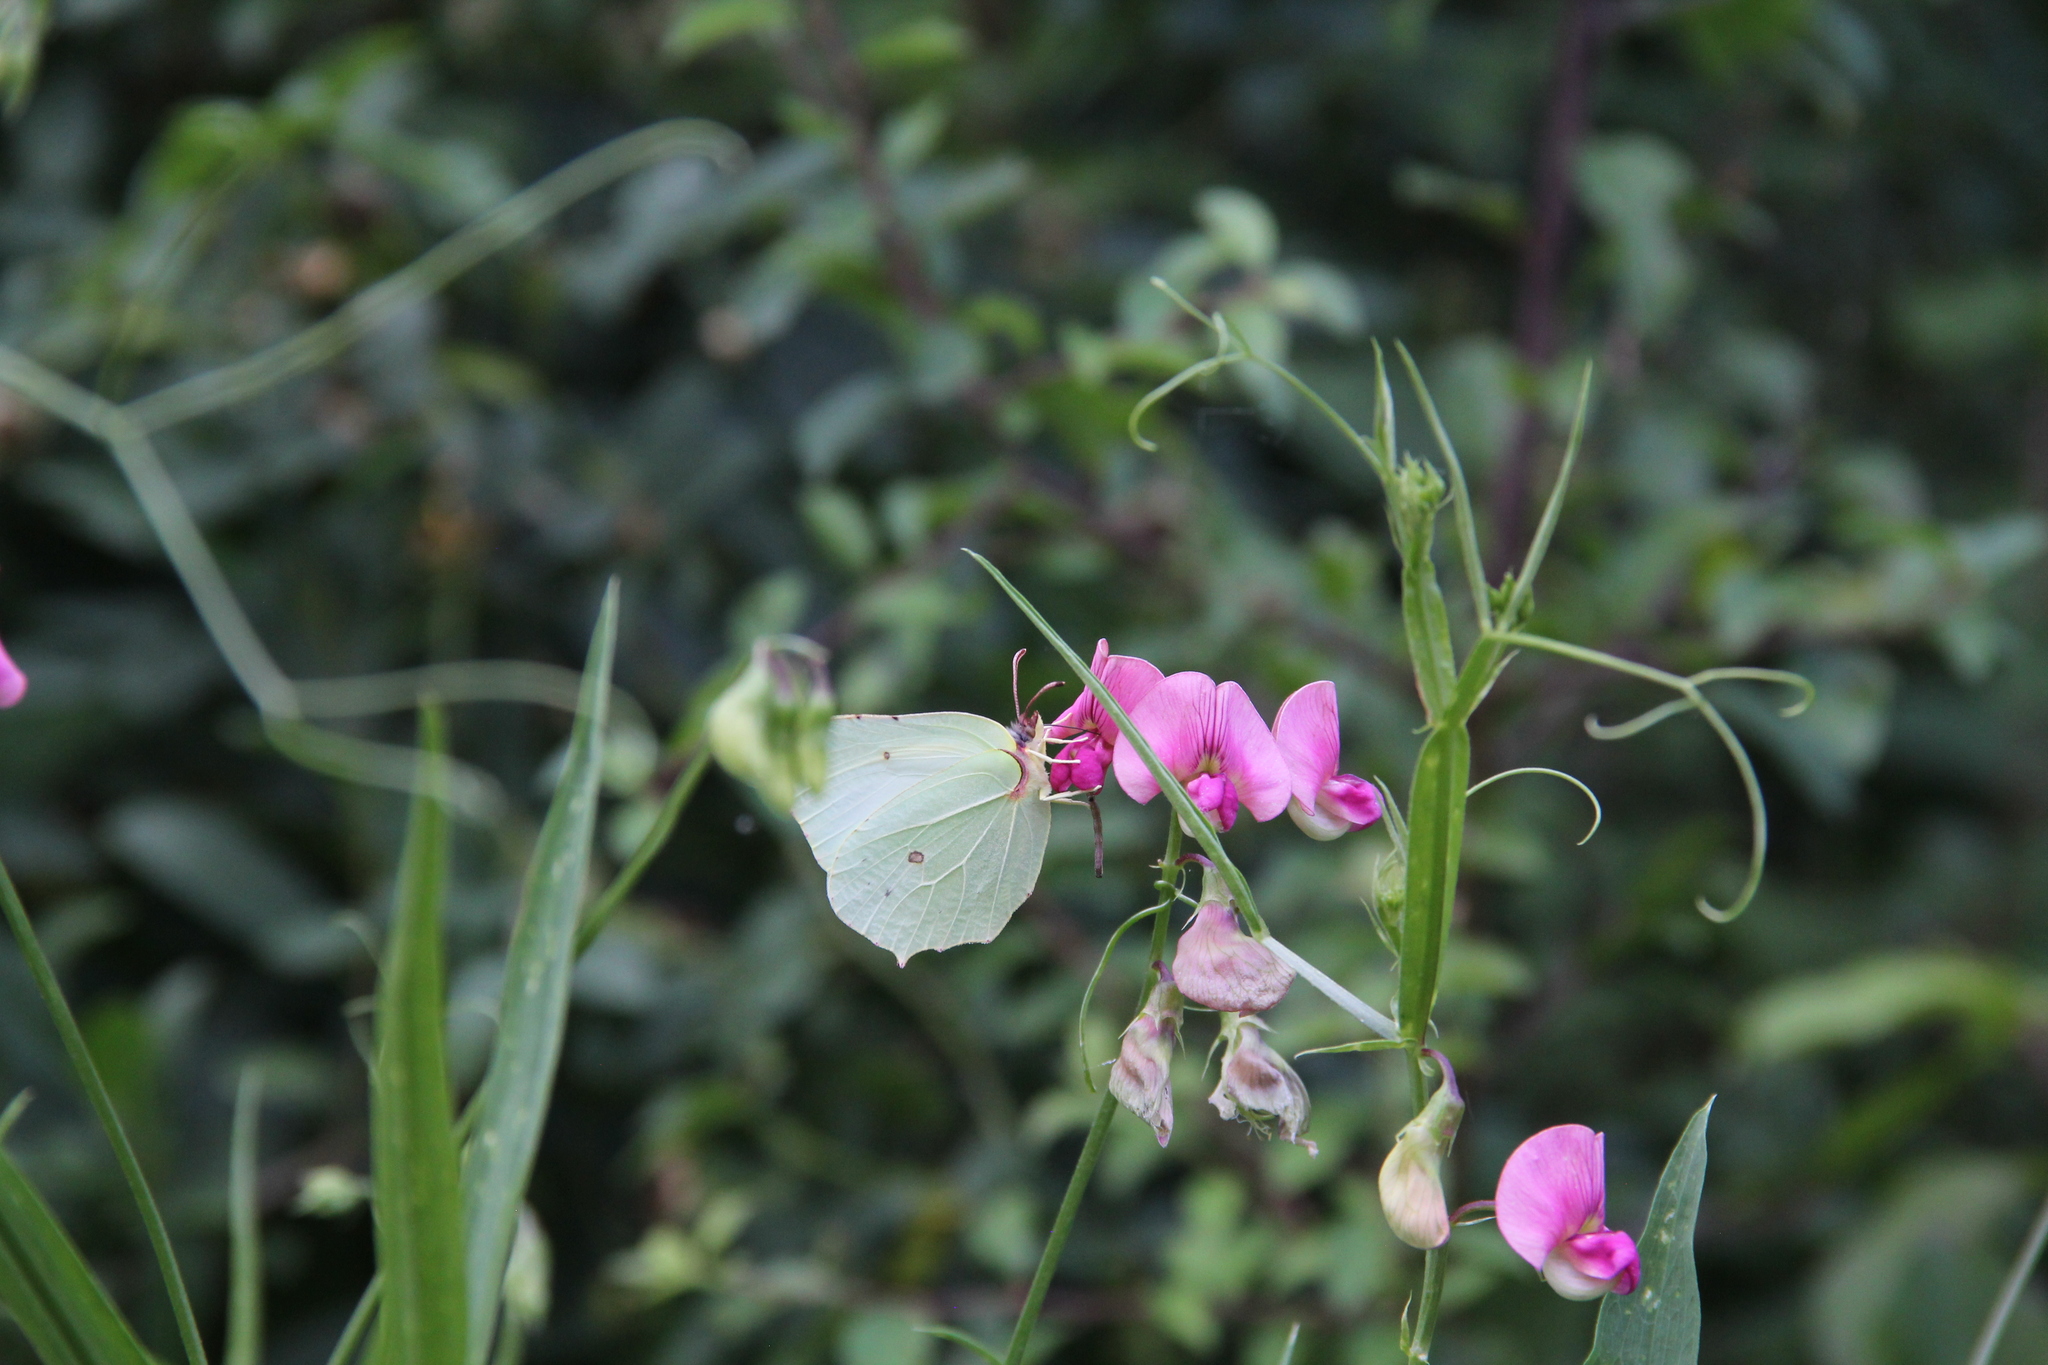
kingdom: Animalia
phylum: Arthropoda
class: Insecta
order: Lepidoptera
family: Pieridae
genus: Gonepteryx
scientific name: Gonepteryx rhamni
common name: Brimstone
